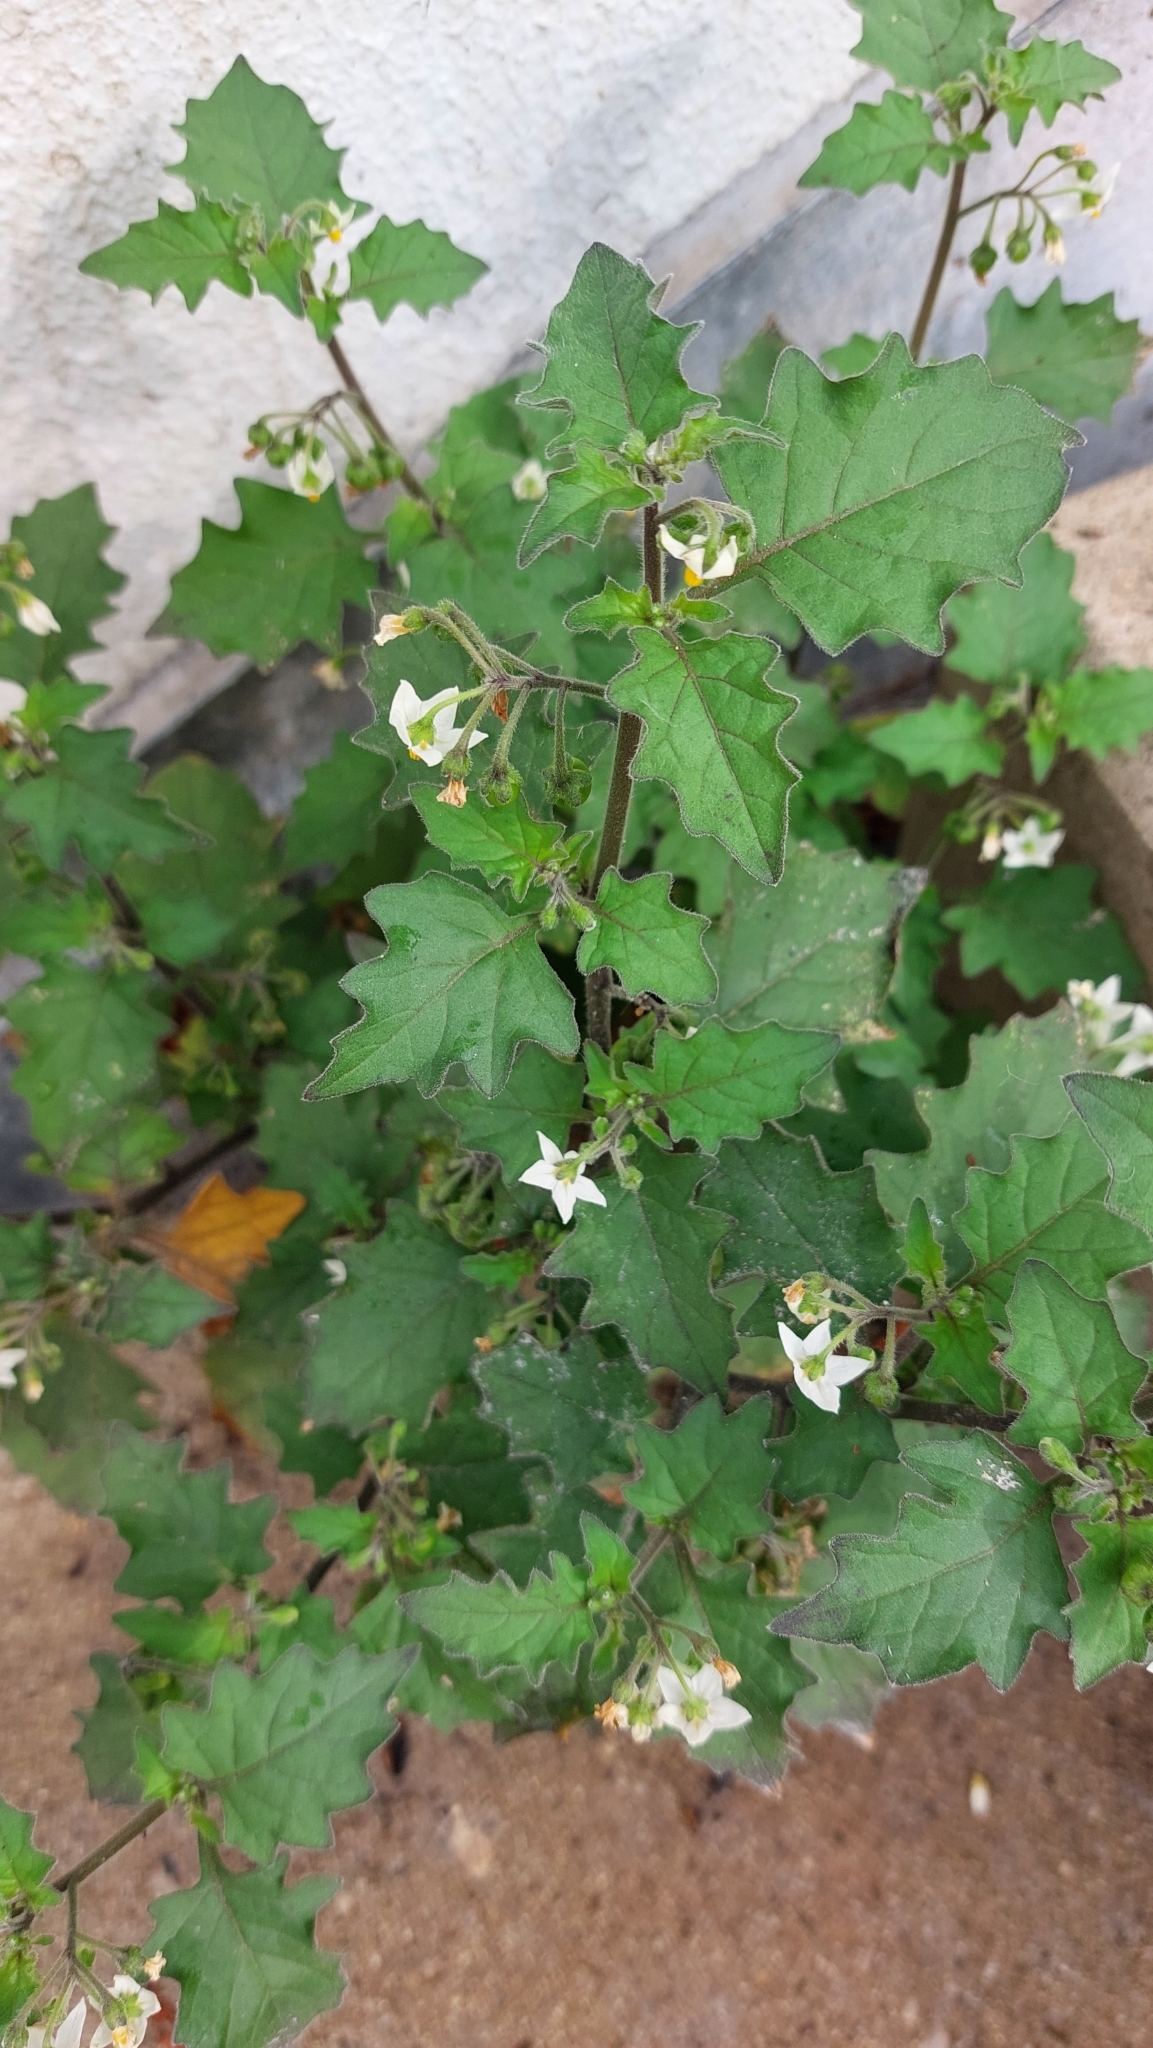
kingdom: Plantae
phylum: Tracheophyta
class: Magnoliopsida
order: Solanales
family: Solanaceae
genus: Solanum
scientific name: Solanum nigrum
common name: Black nightshade
